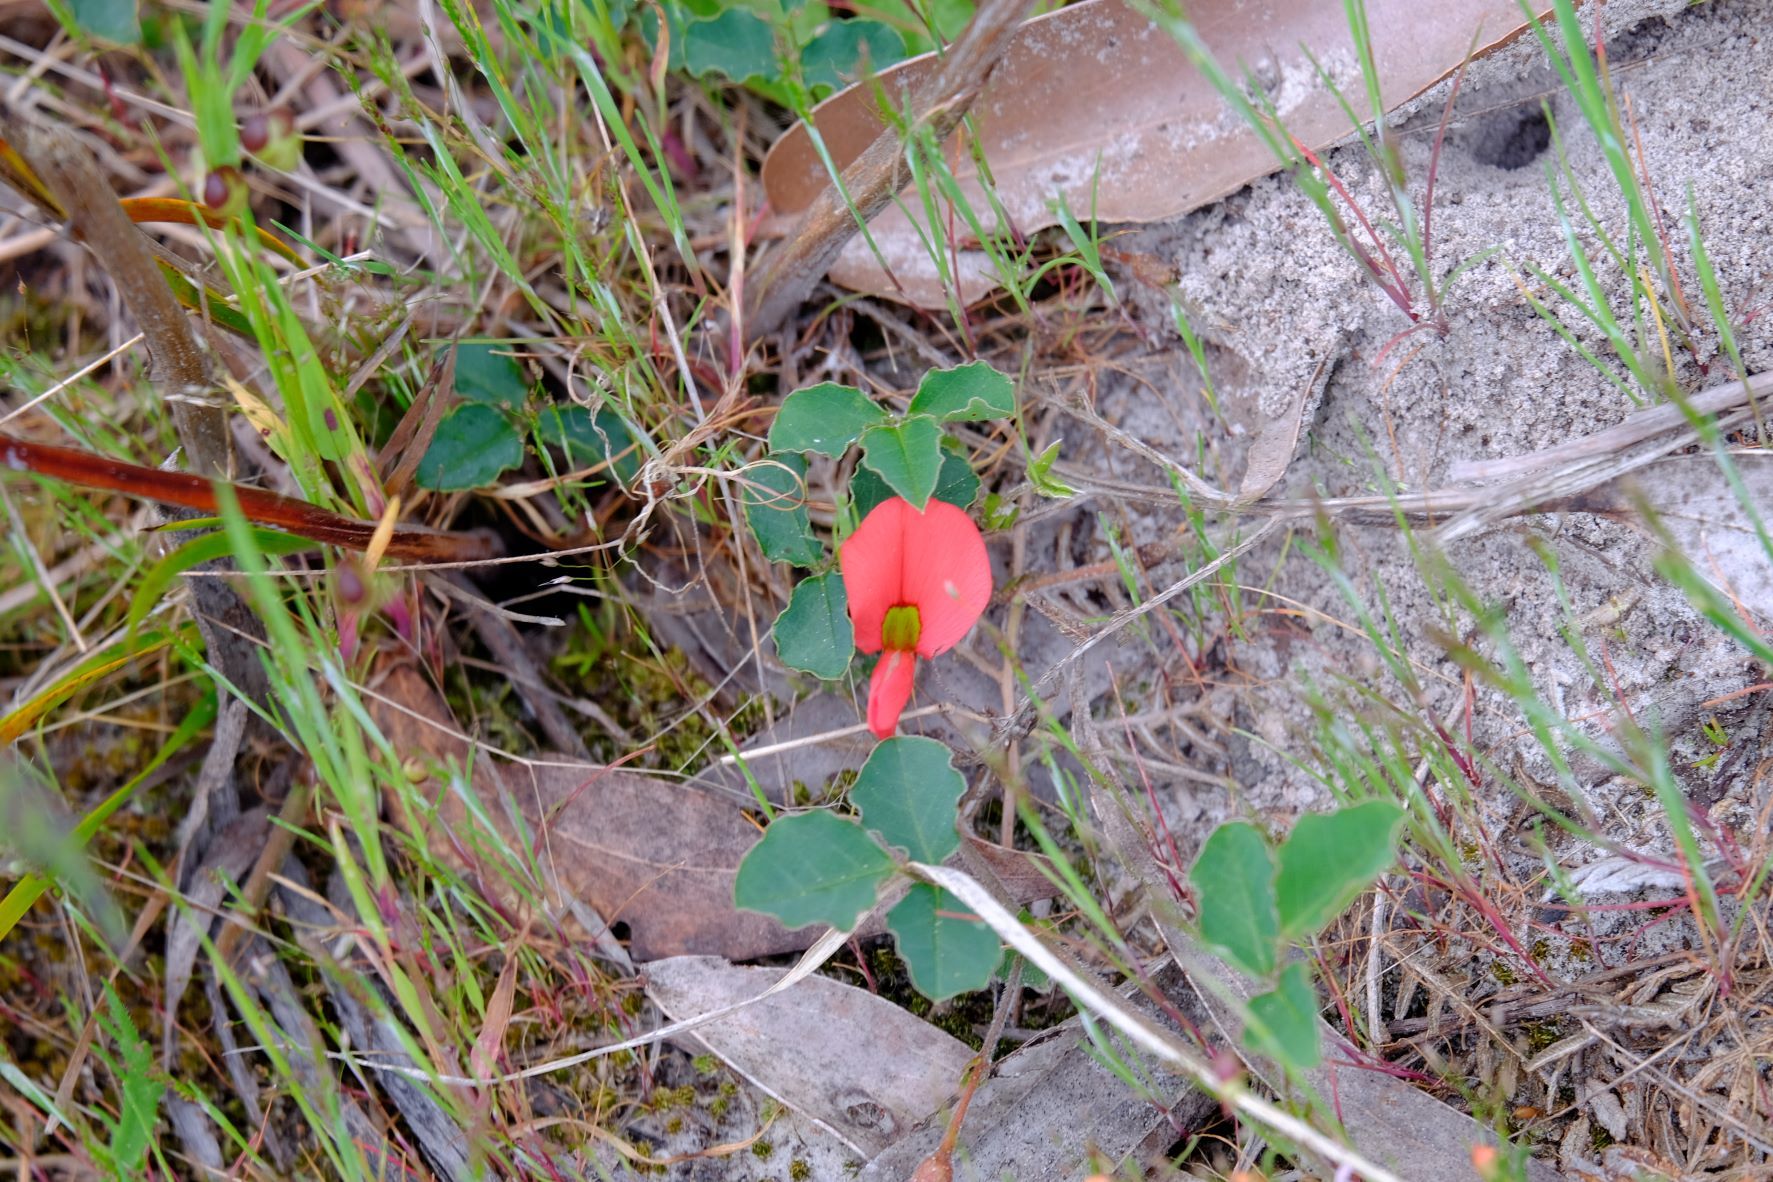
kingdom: Plantae
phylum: Tracheophyta
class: Magnoliopsida
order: Fabales
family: Fabaceae
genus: Kennedia
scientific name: Kennedia prostrata
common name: Running-postman
